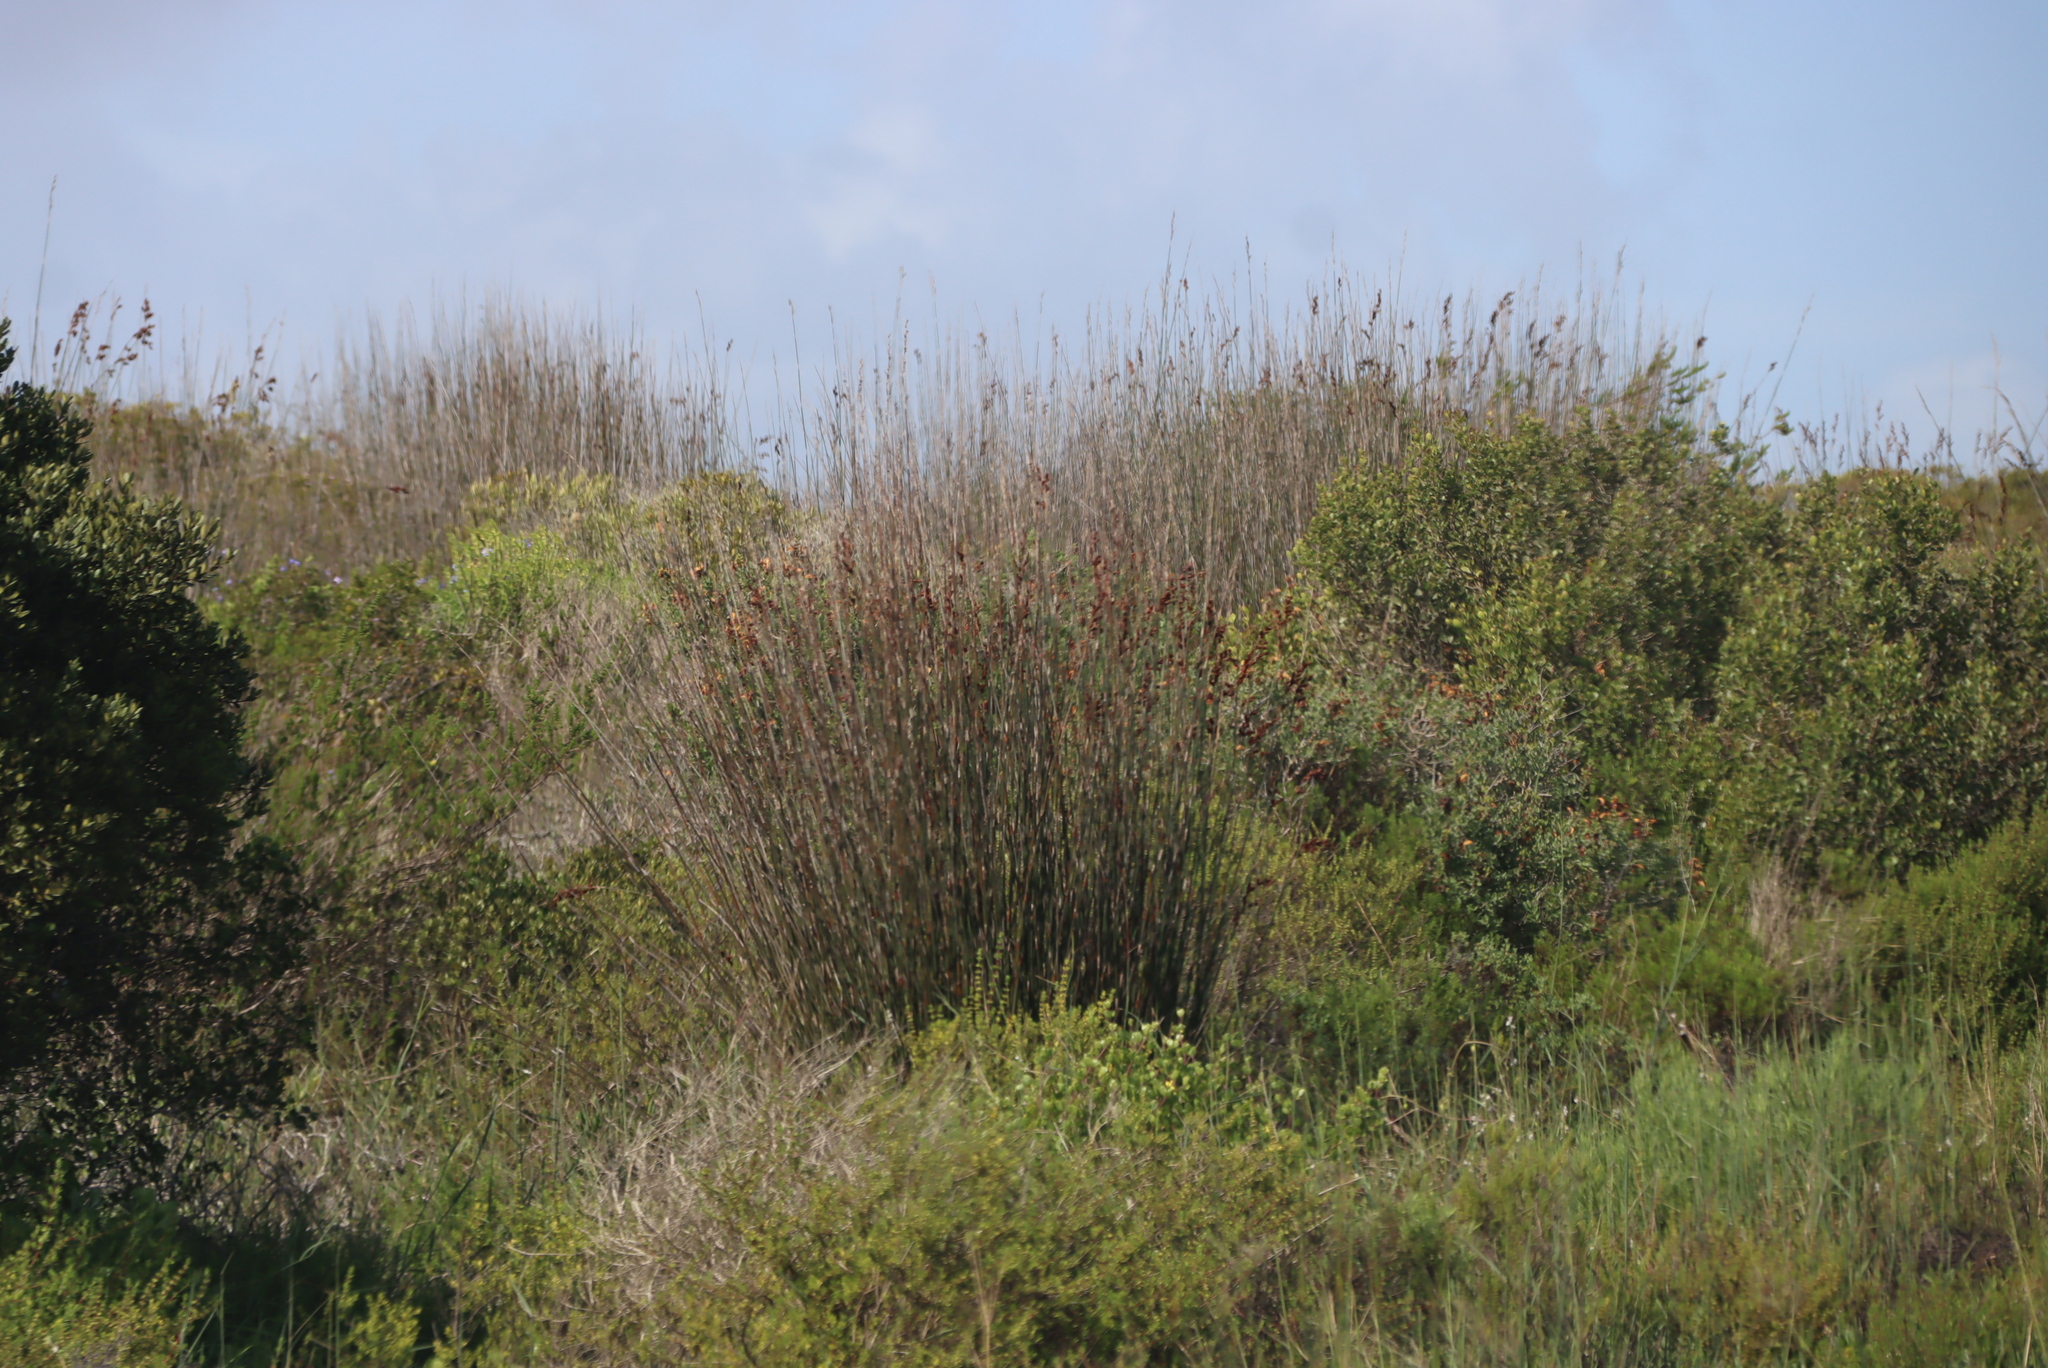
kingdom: Plantae
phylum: Tracheophyta
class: Liliopsida
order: Poales
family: Restionaceae
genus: Thamnochortus
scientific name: Thamnochortus spicigerus
